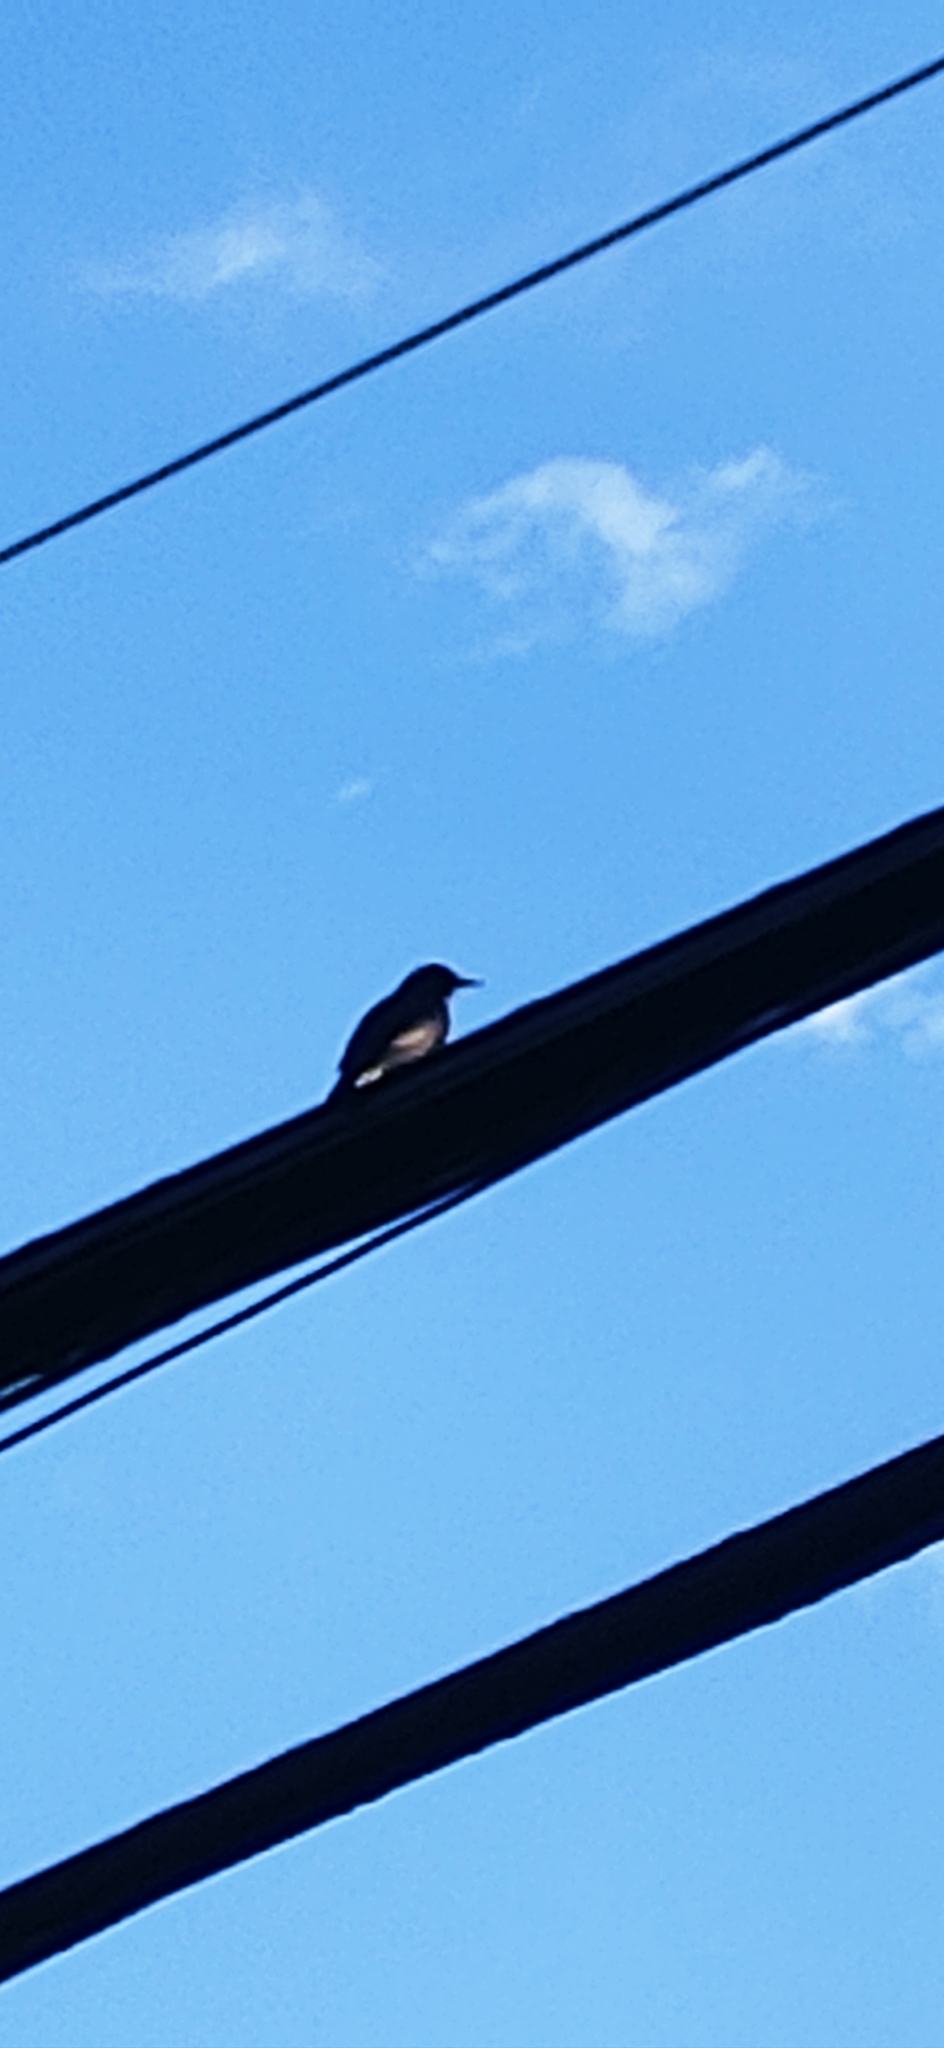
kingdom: Animalia
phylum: Chordata
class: Aves
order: Passeriformes
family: Sturnidae
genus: Sturnus
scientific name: Sturnus vulgaris
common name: Common starling
